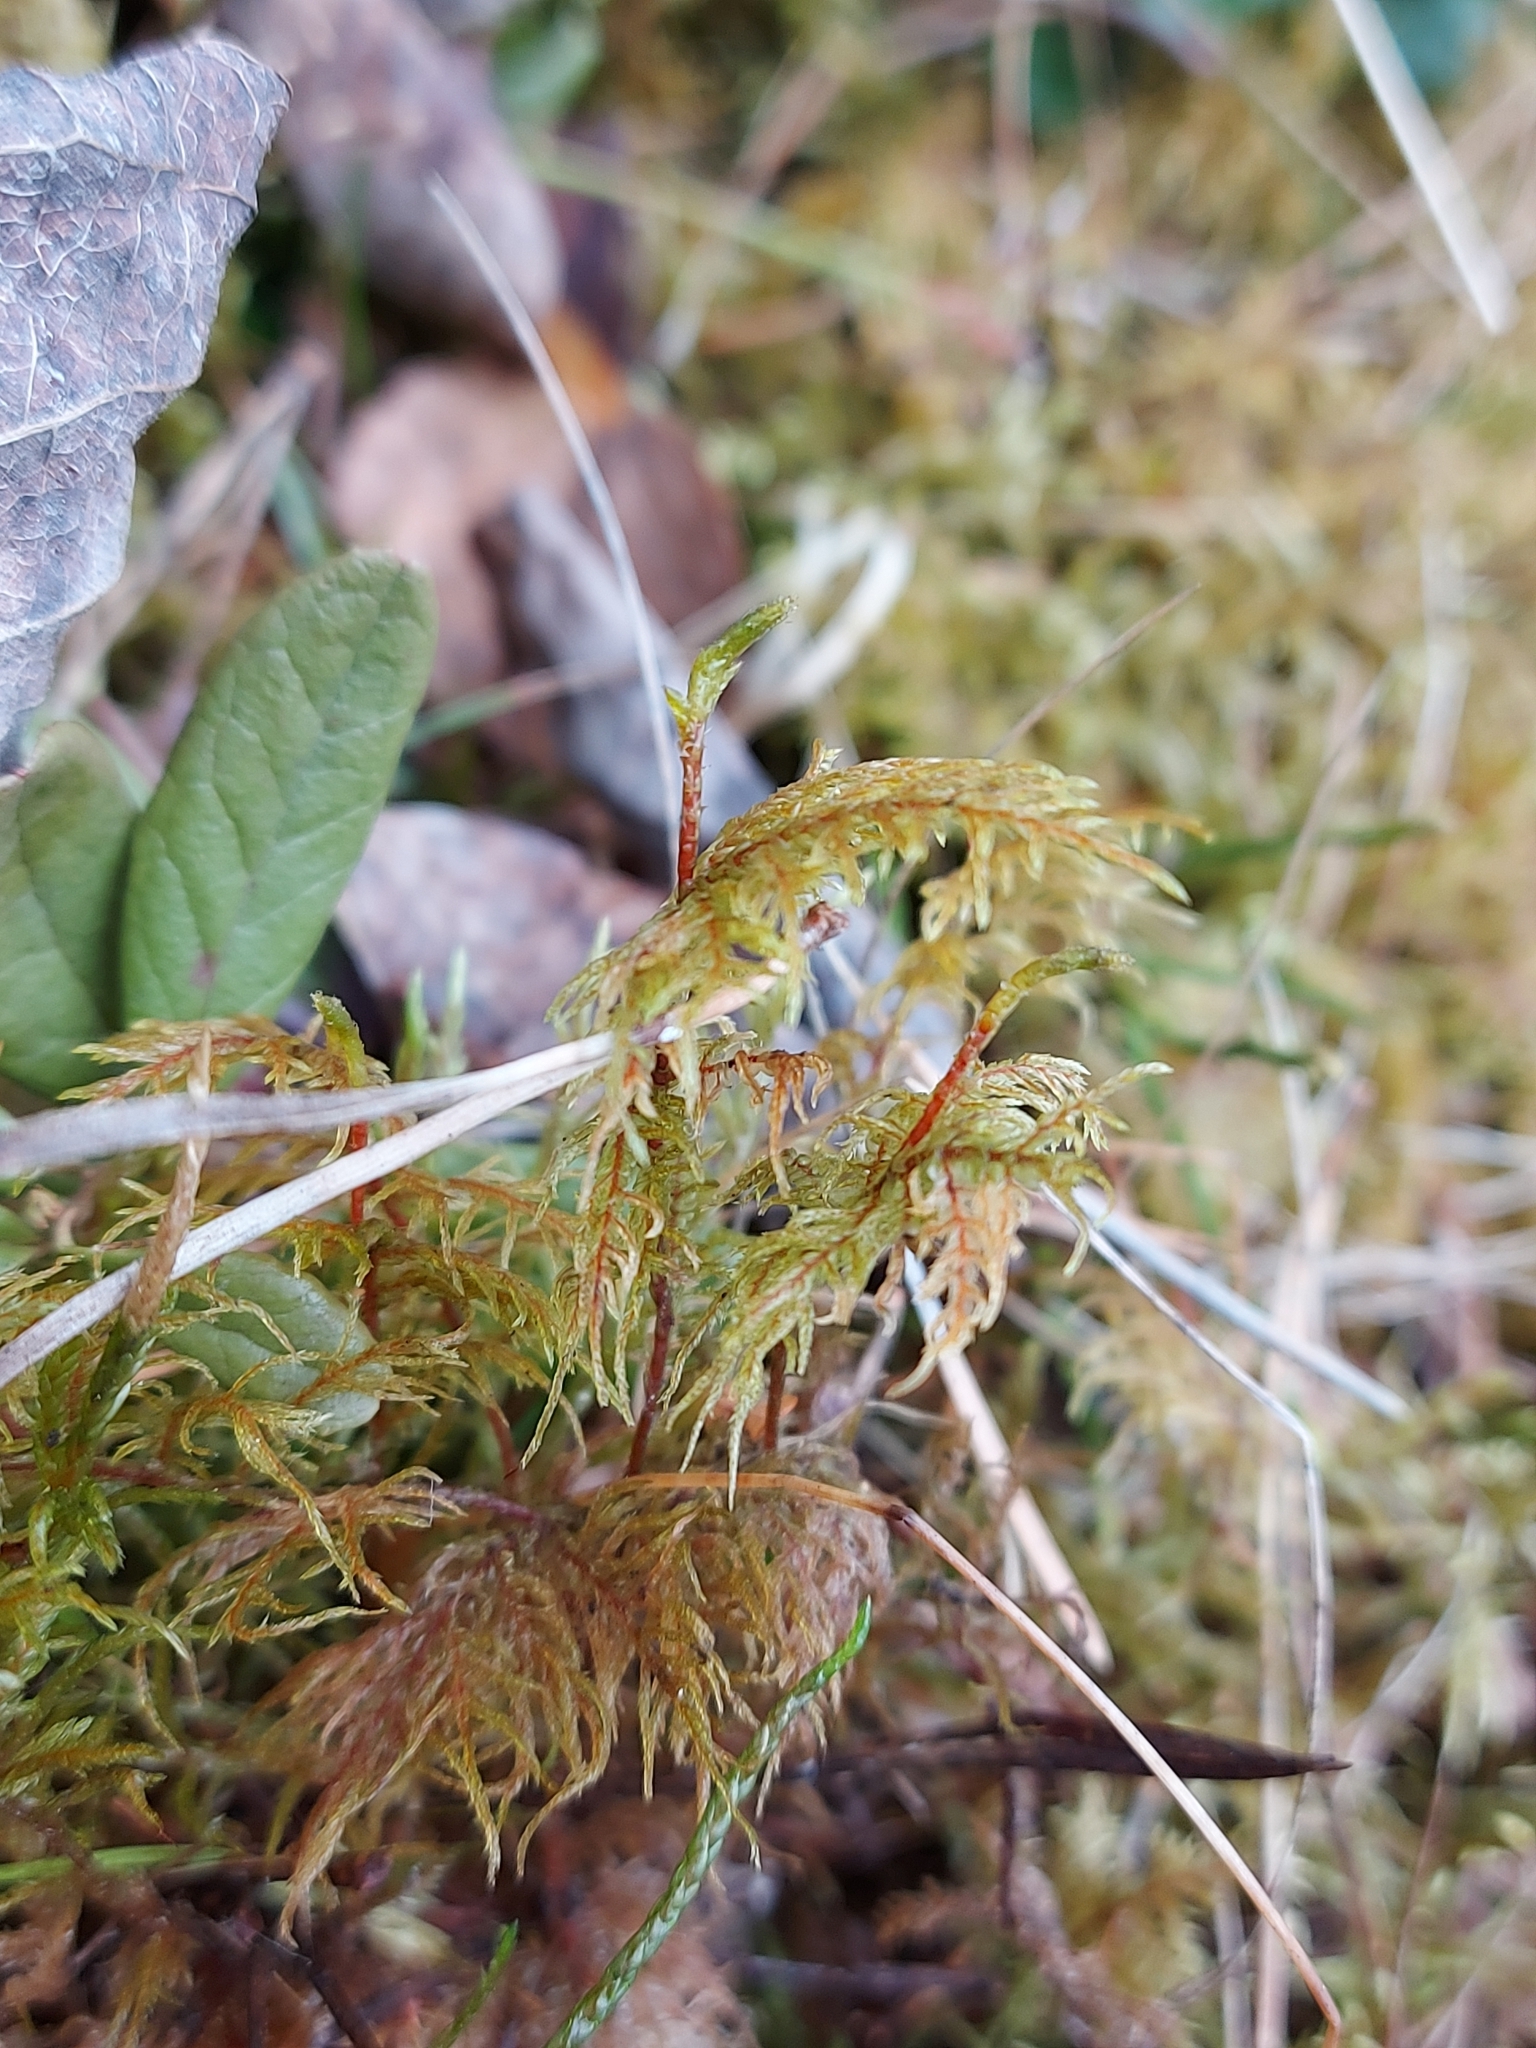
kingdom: Plantae
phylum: Bryophyta
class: Bryopsida
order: Hypnales
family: Hylocomiaceae
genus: Hylocomium
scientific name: Hylocomium splendens
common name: Stairstep moss
